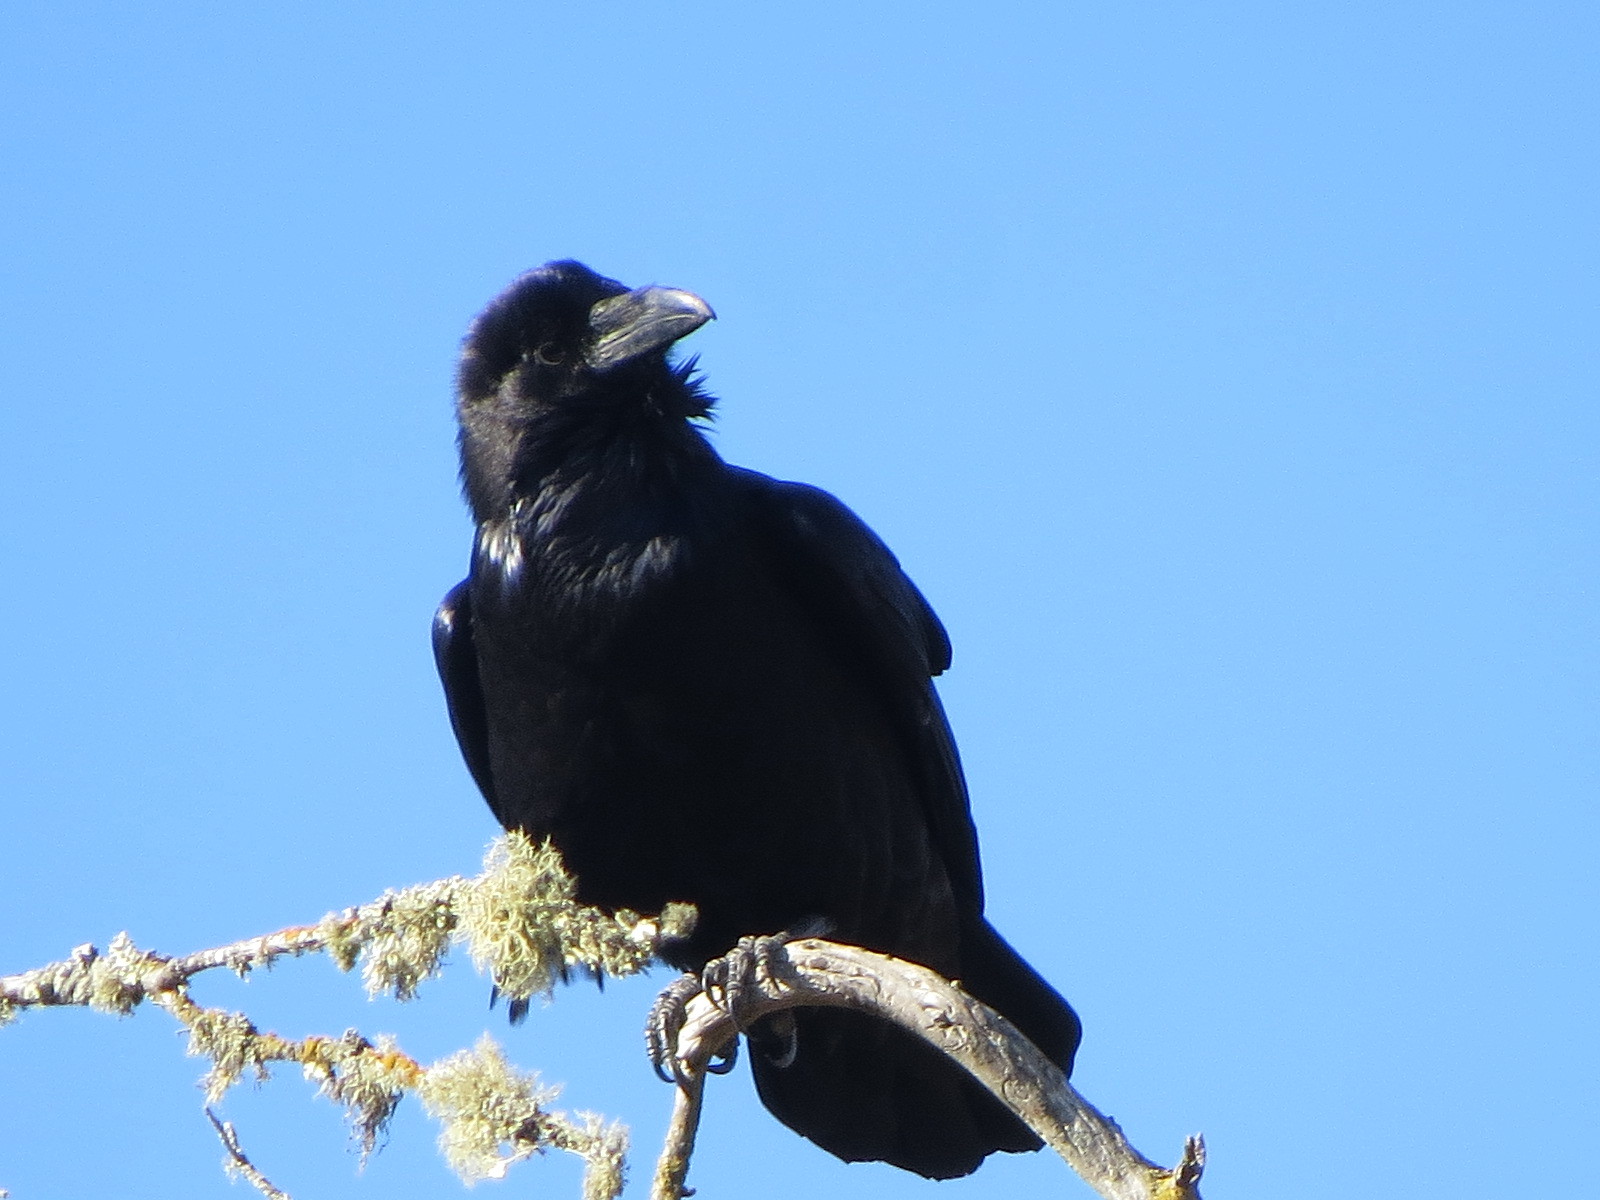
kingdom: Animalia
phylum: Chordata
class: Aves
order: Passeriformes
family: Corvidae
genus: Corvus
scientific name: Corvus corax
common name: Common raven
